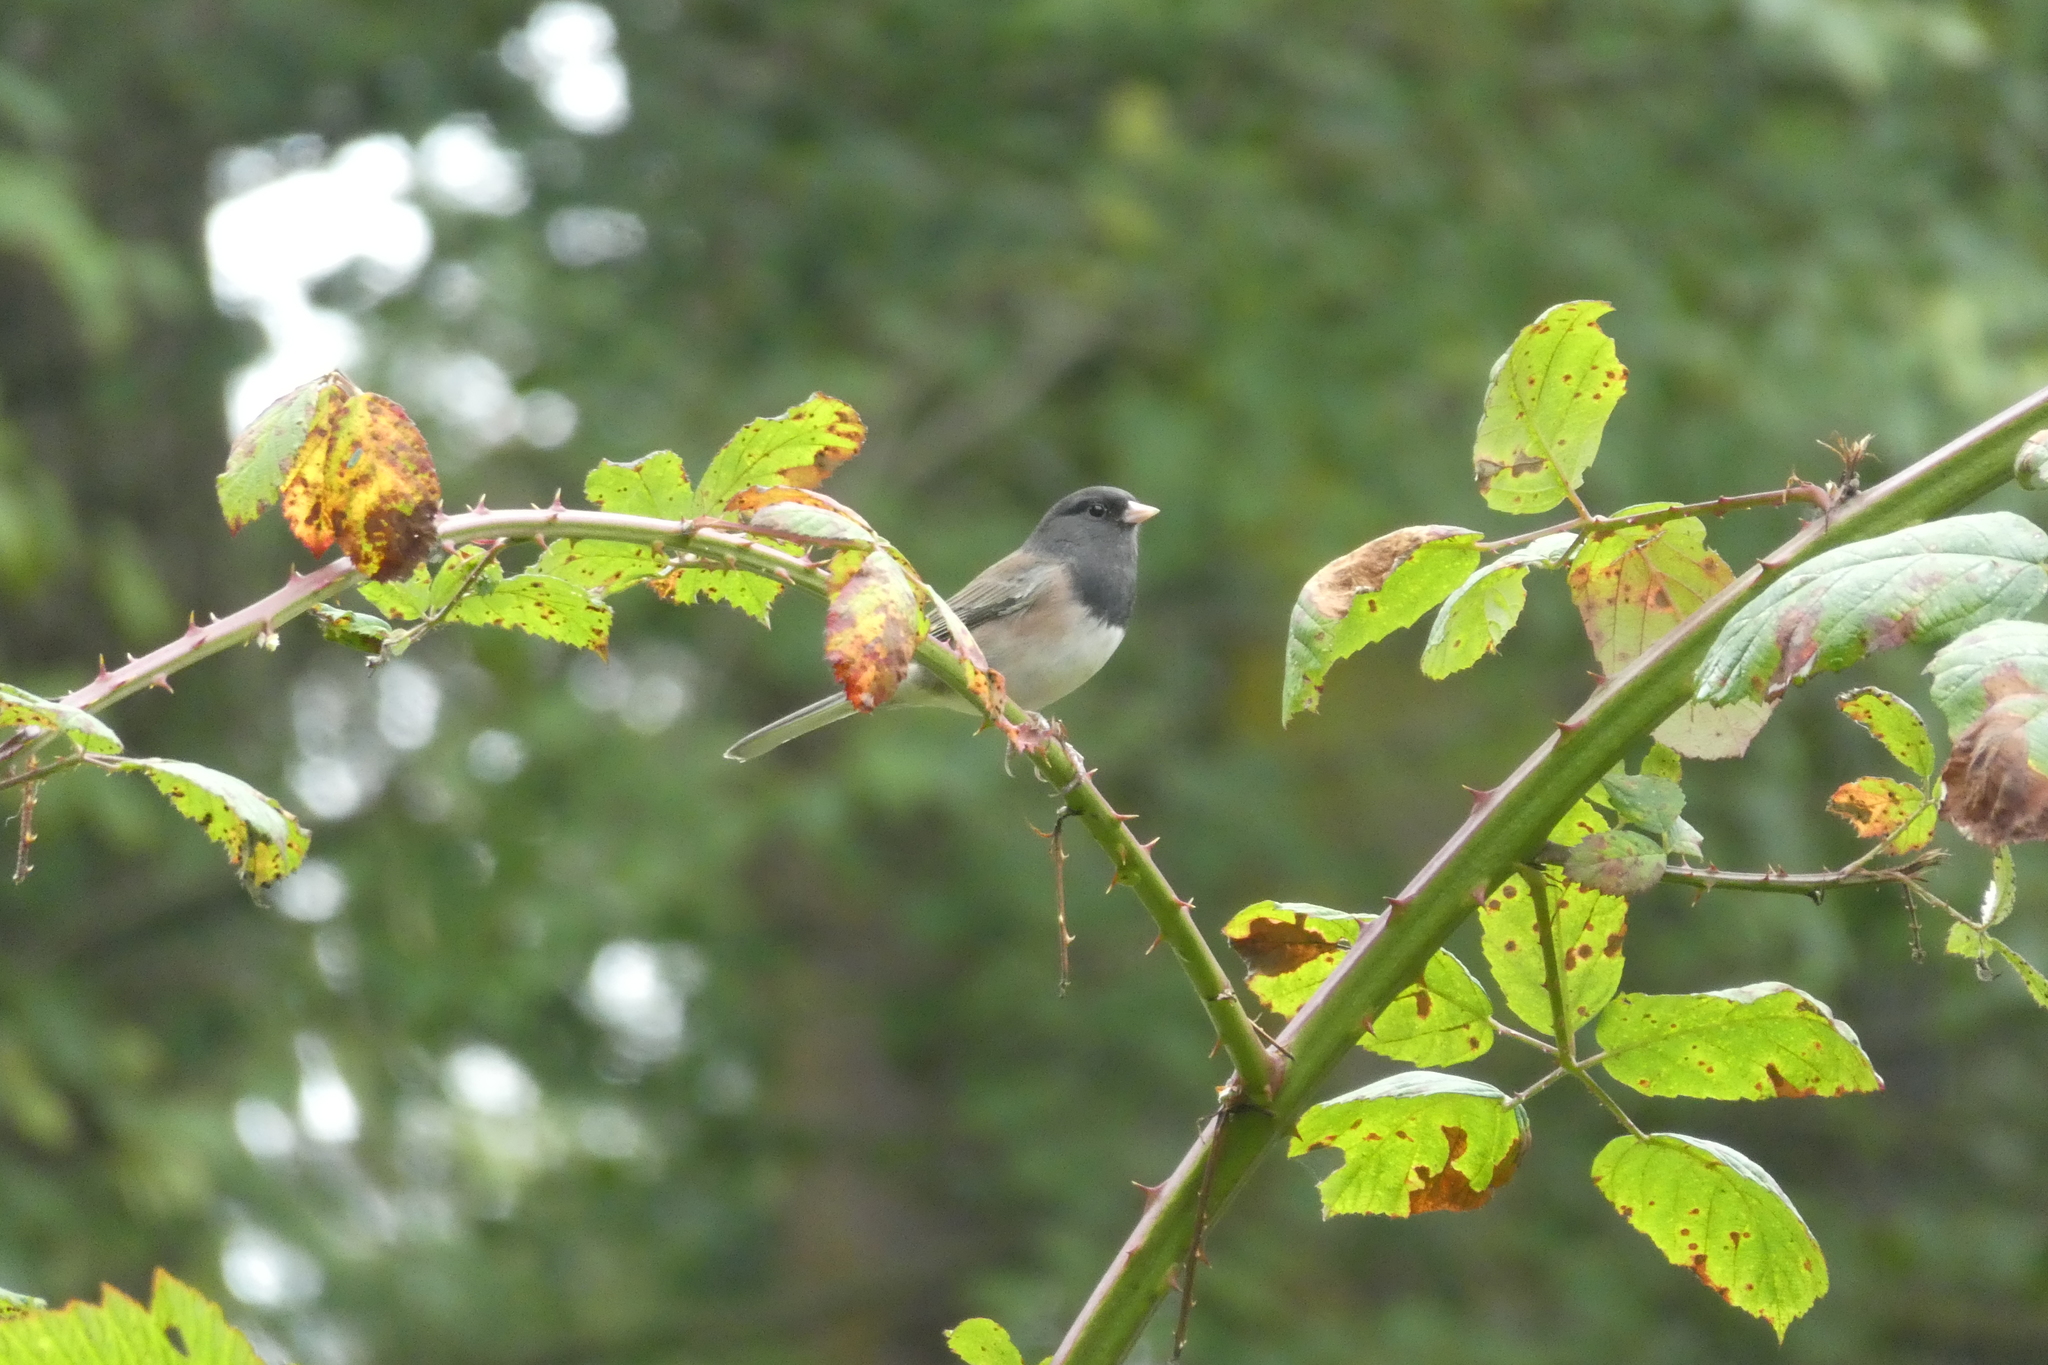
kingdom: Animalia
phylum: Chordata
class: Aves
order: Passeriformes
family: Passerellidae
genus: Junco
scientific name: Junco hyemalis
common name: Dark-eyed junco
